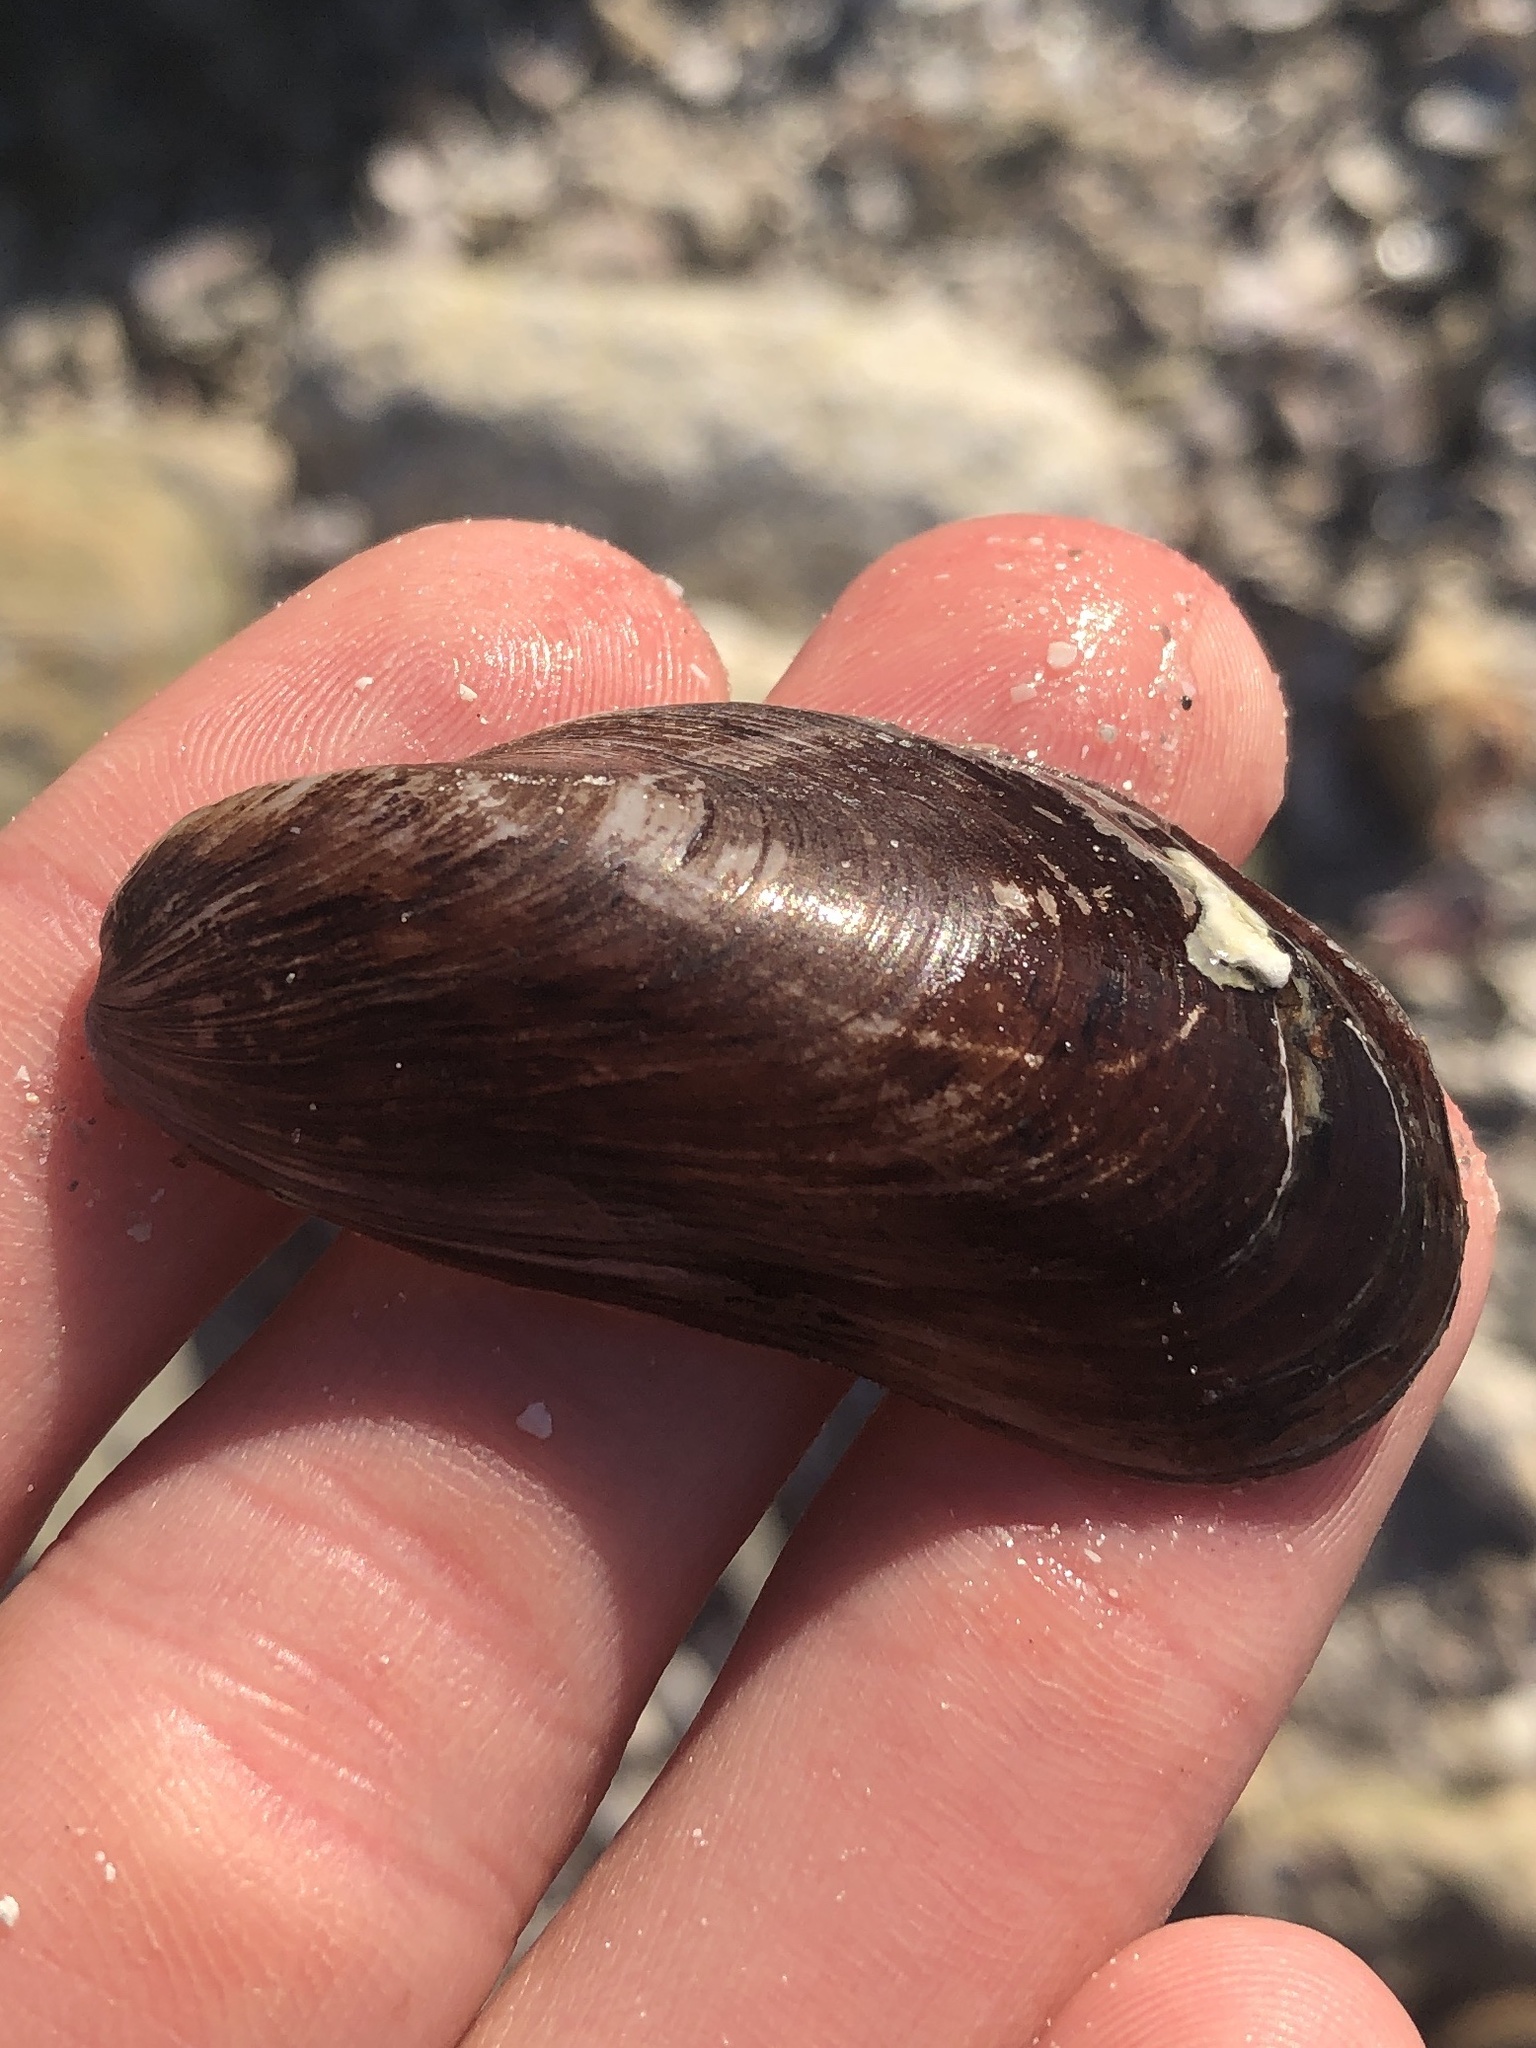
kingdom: Animalia
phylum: Mollusca
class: Bivalvia
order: Mytilida
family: Mytilidae
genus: Modiolus
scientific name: Modiolus squamosus
